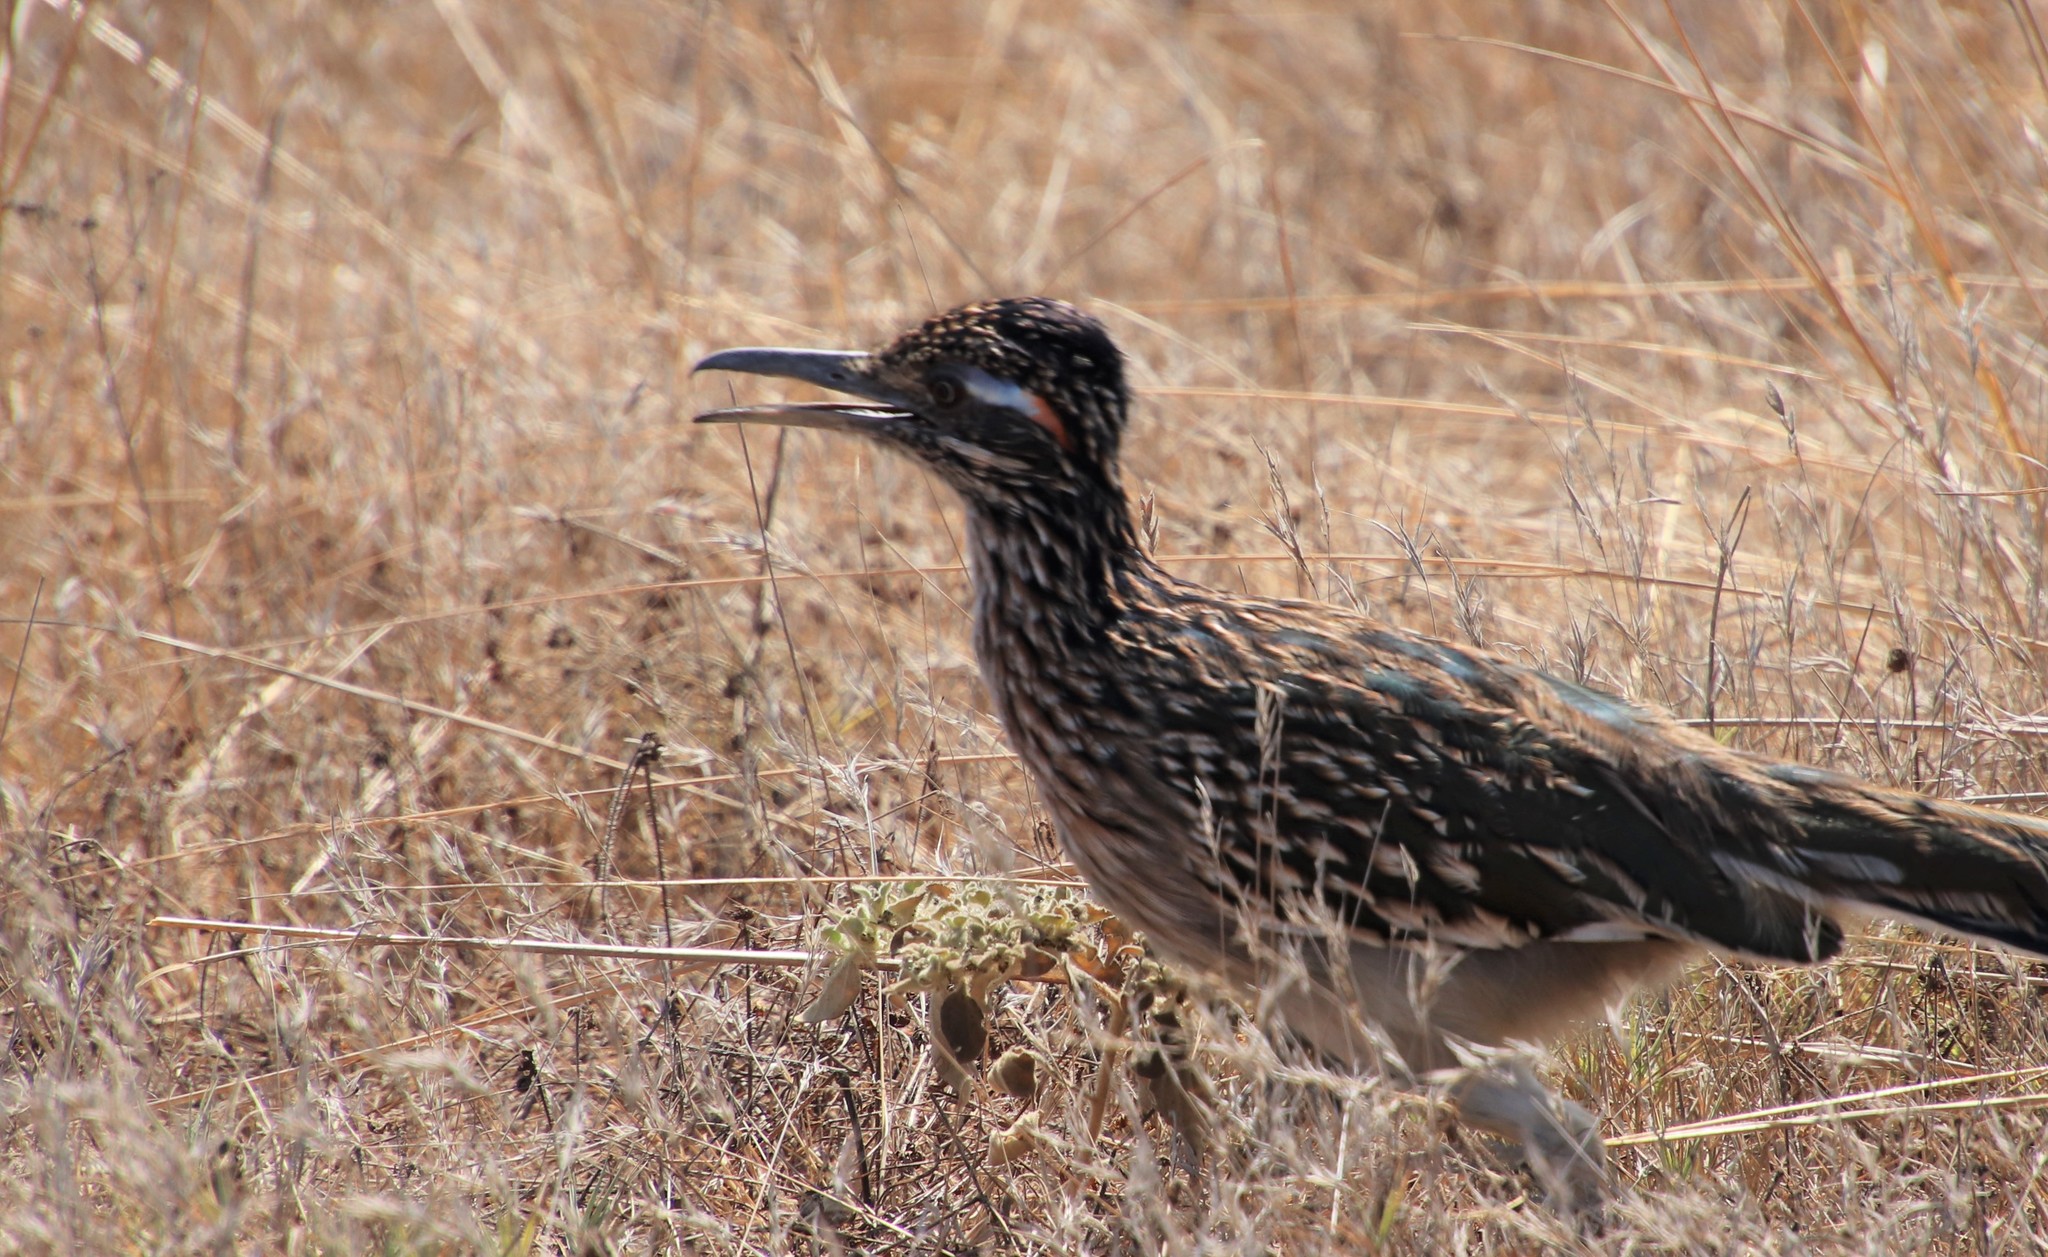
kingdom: Animalia
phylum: Chordata
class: Aves
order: Cuculiformes
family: Cuculidae
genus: Geococcyx
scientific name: Geococcyx californianus
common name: Greater roadrunner
